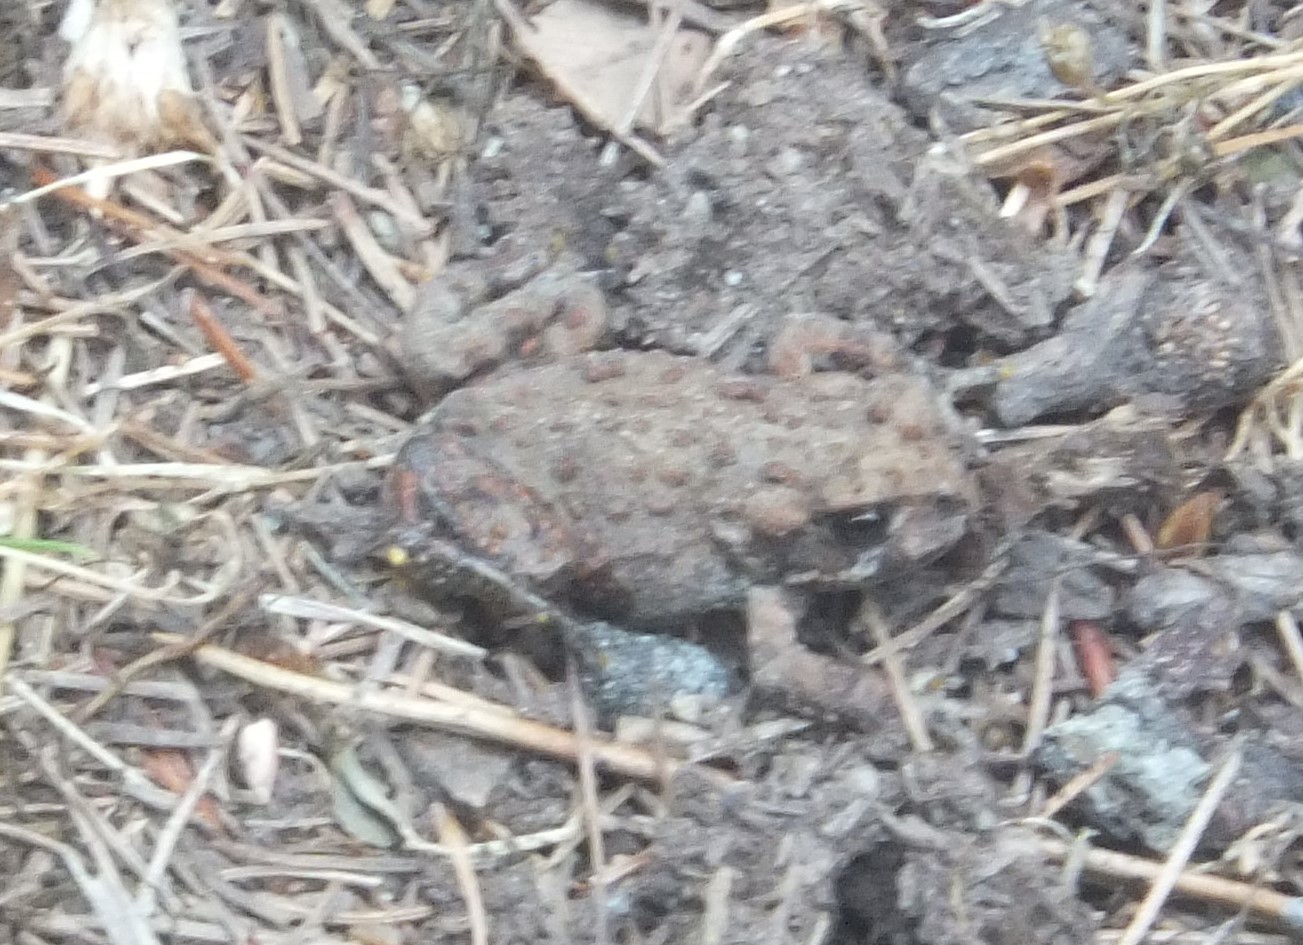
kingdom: Animalia
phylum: Chordata
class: Amphibia
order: Anura
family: Bufonidae
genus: Anaxyrus
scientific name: Anaxyrus boreas
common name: Western toad
